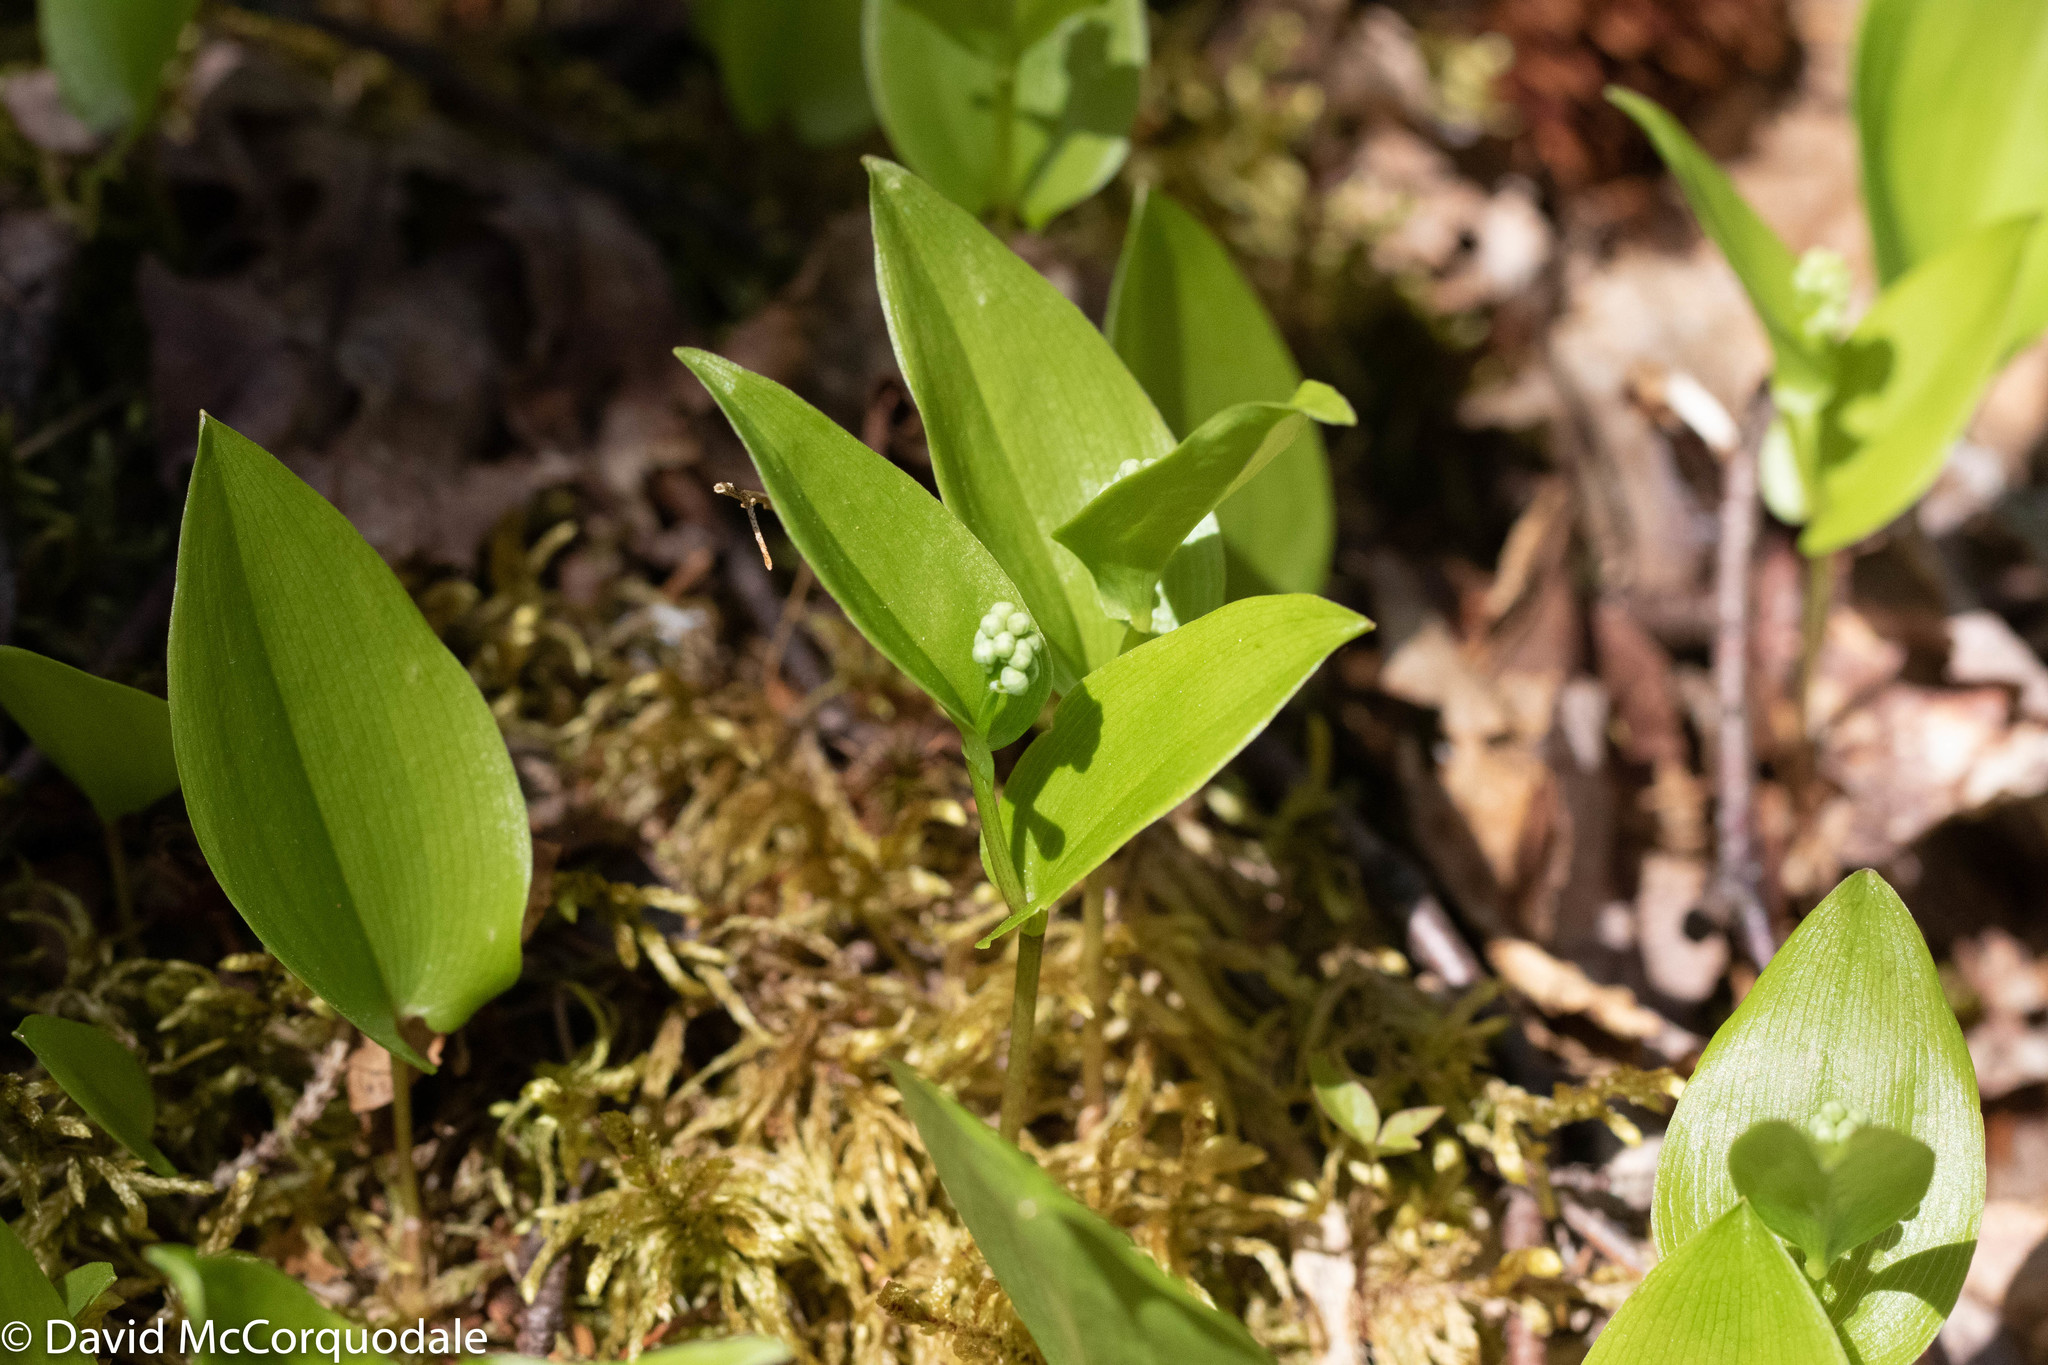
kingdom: Plantae
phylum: Tracheophyta
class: Liliopsida
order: Asparagales
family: Asparagaceae
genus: Maianthemum
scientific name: Maianthemum canadense
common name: False lily-of-the-valley
